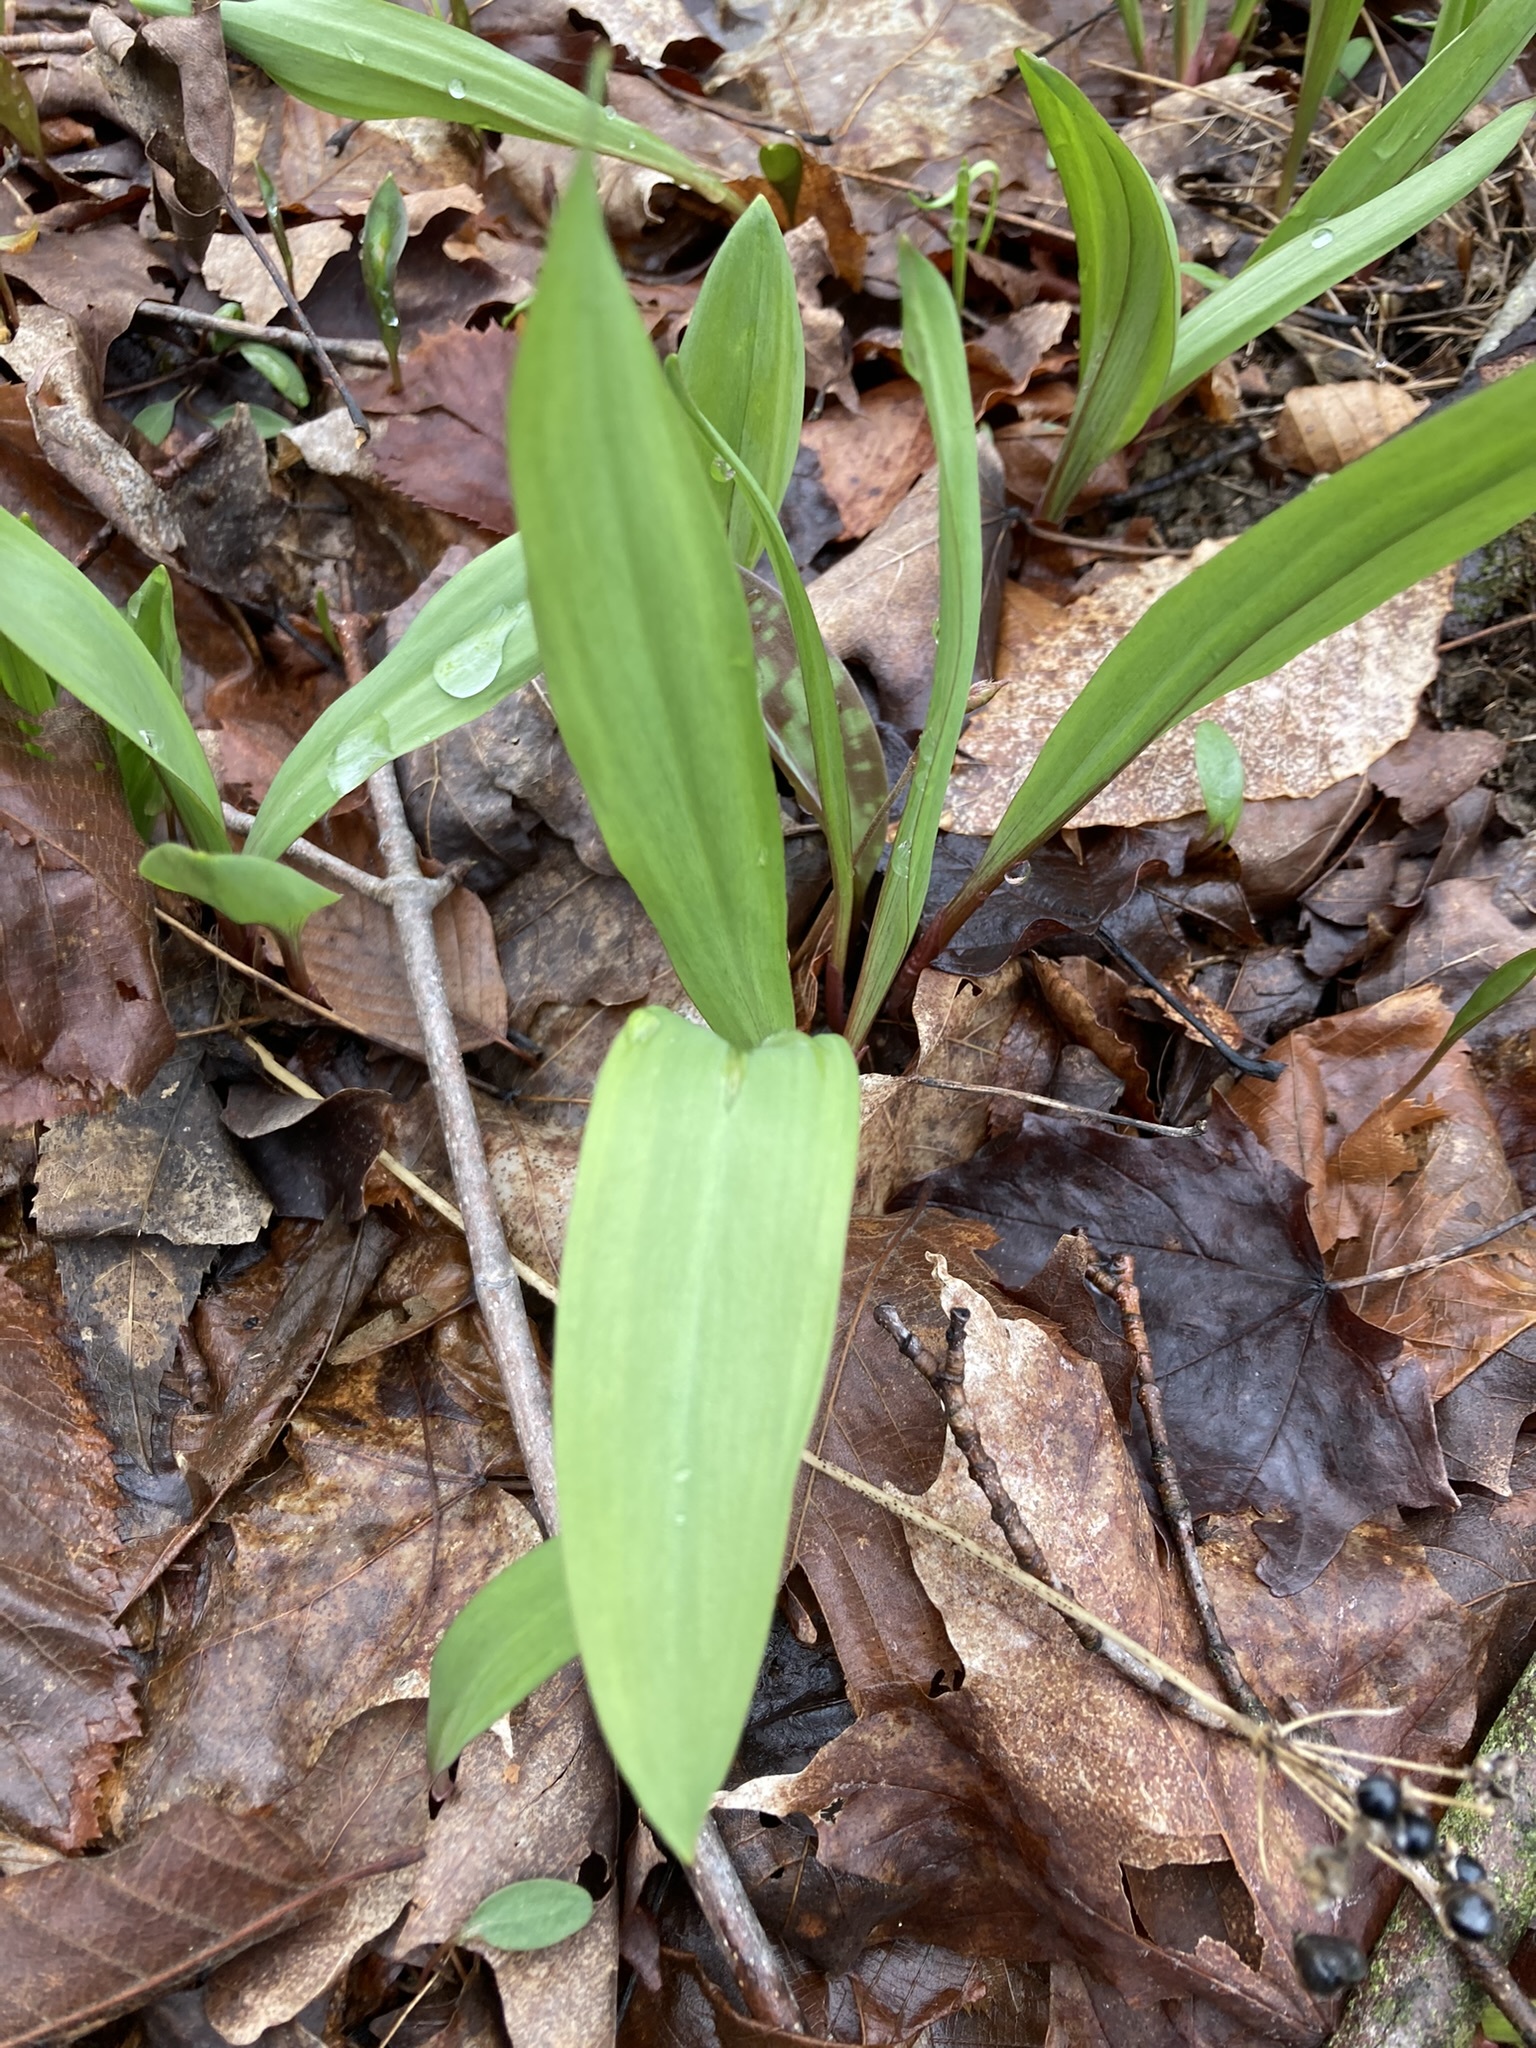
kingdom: Plantae
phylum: Tracheophyta
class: Liliopsida
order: Asparagales
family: Amaryllidaceae
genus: Allium
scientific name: Allium tricoccum
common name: Ramp
